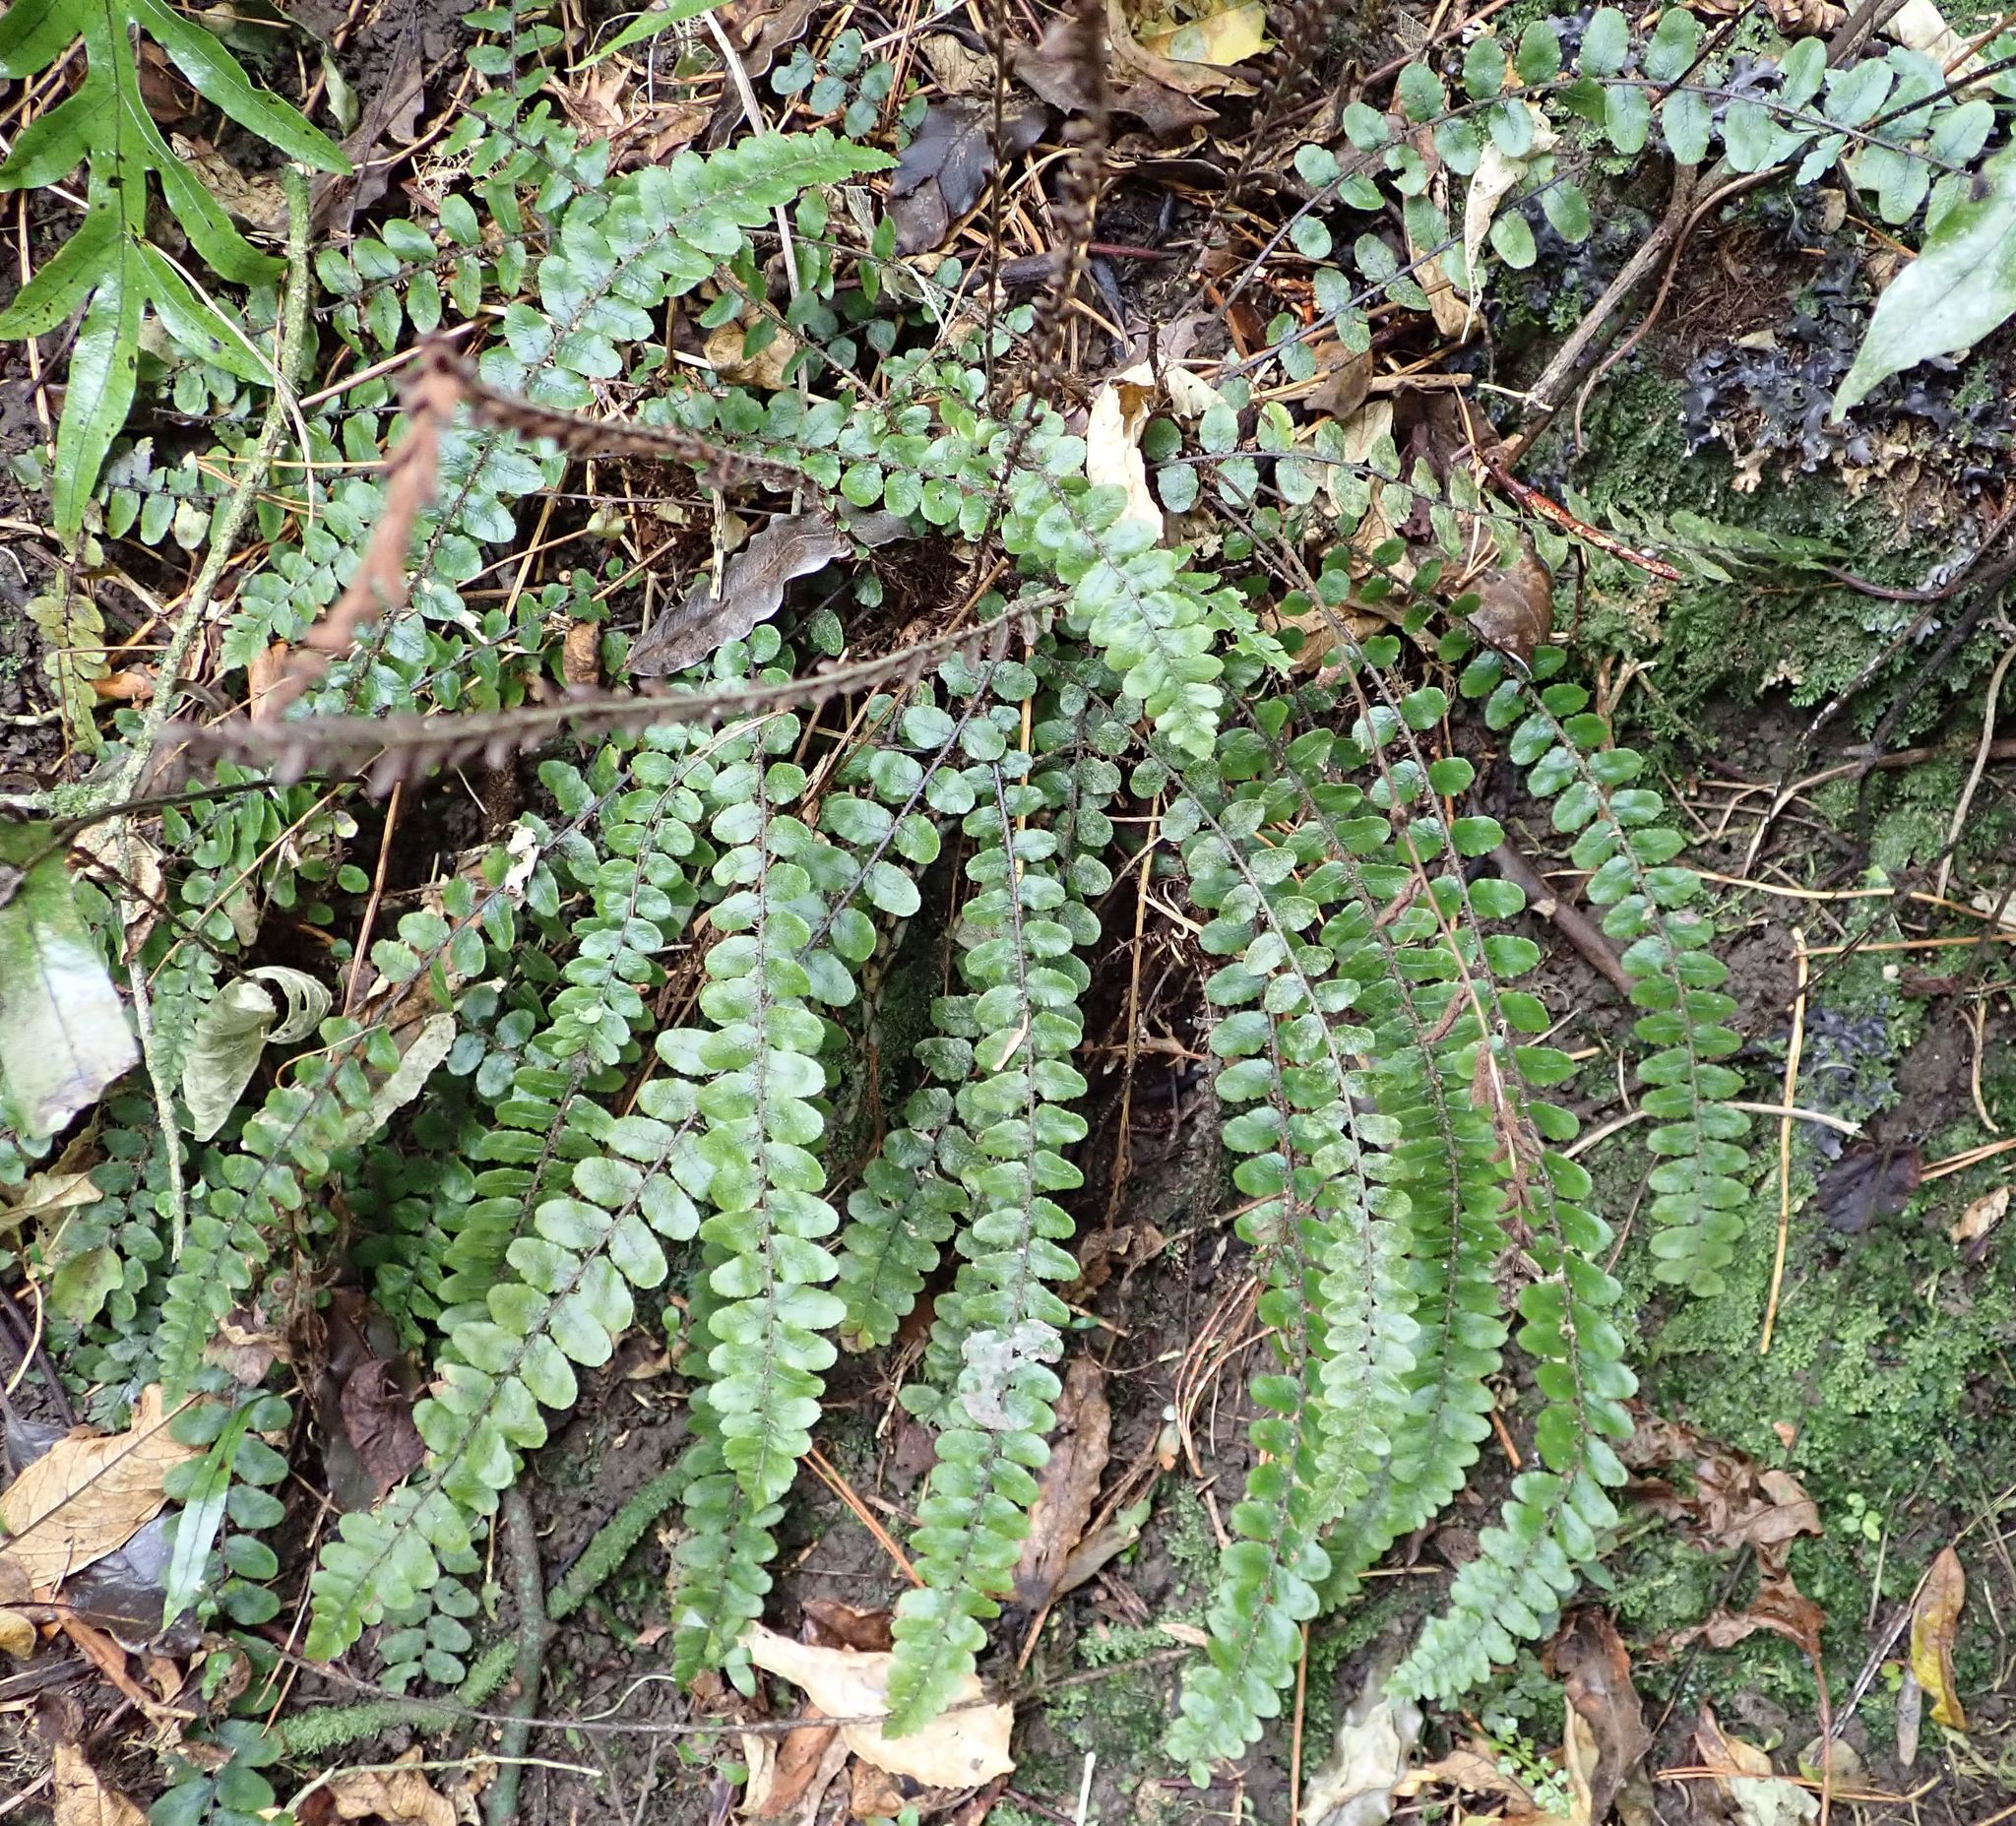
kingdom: Plantae
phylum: Tracheophyta
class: Polypodiopsida
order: Polypodiales
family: Blechnaceae
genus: Cranfillia
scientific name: Cranfillia fluviatilis
